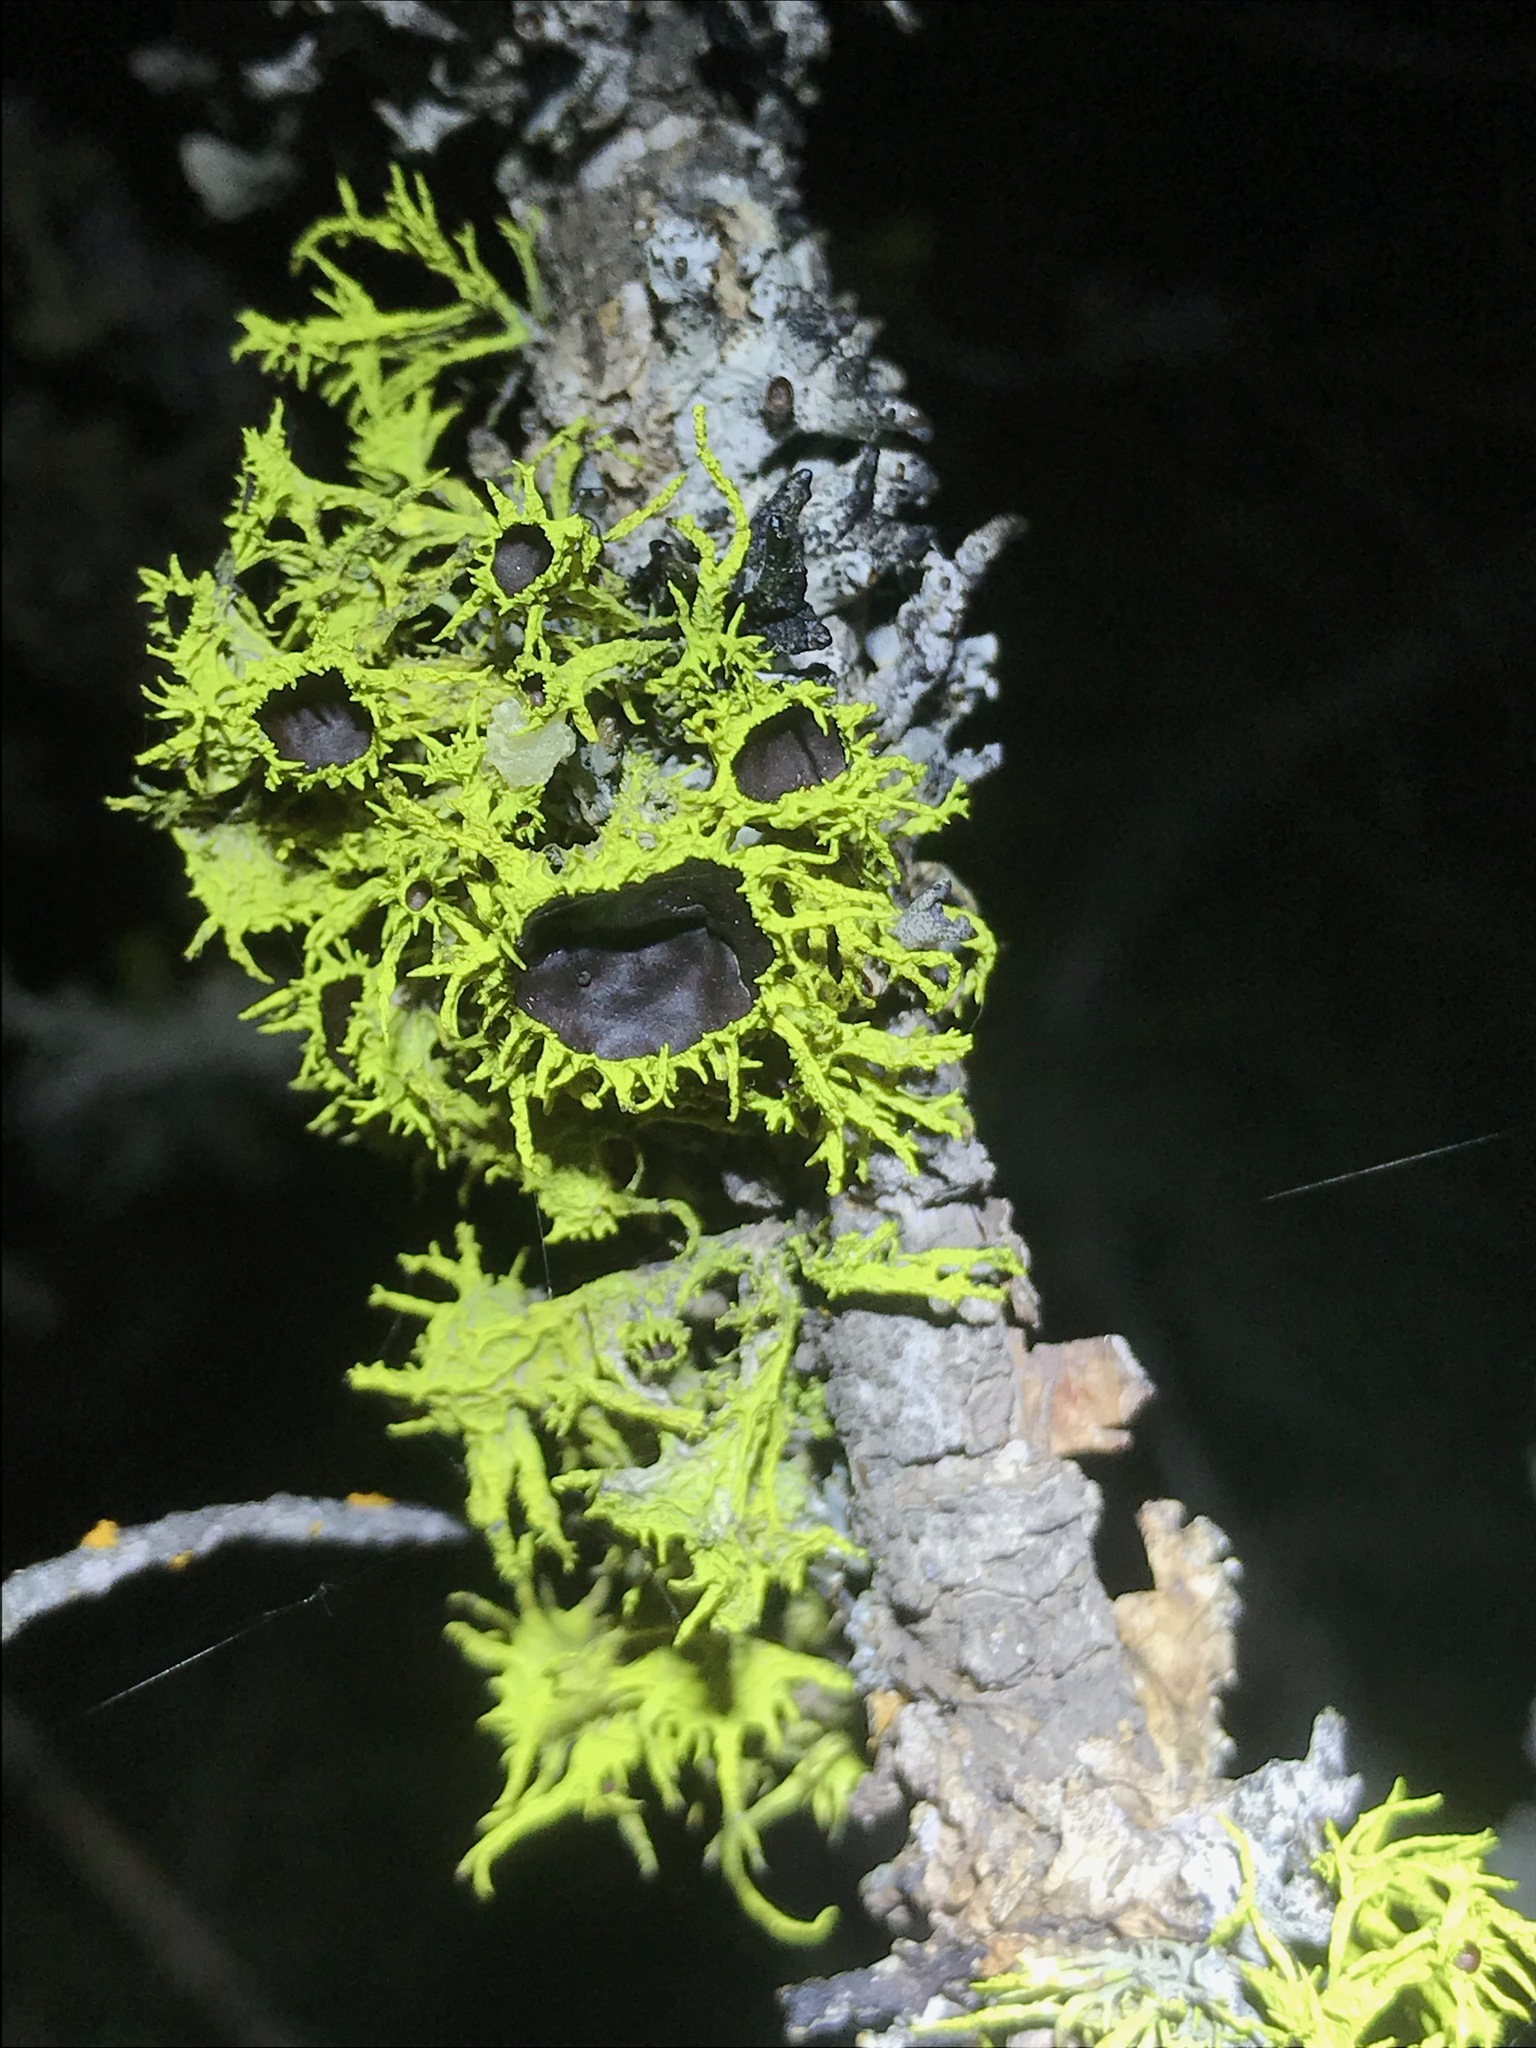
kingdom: Fungi
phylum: Ascomycota
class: Lecanoromycetes
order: Lecanorales
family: Parmeliaceae
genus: Letharia
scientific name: Letharia columbiana
